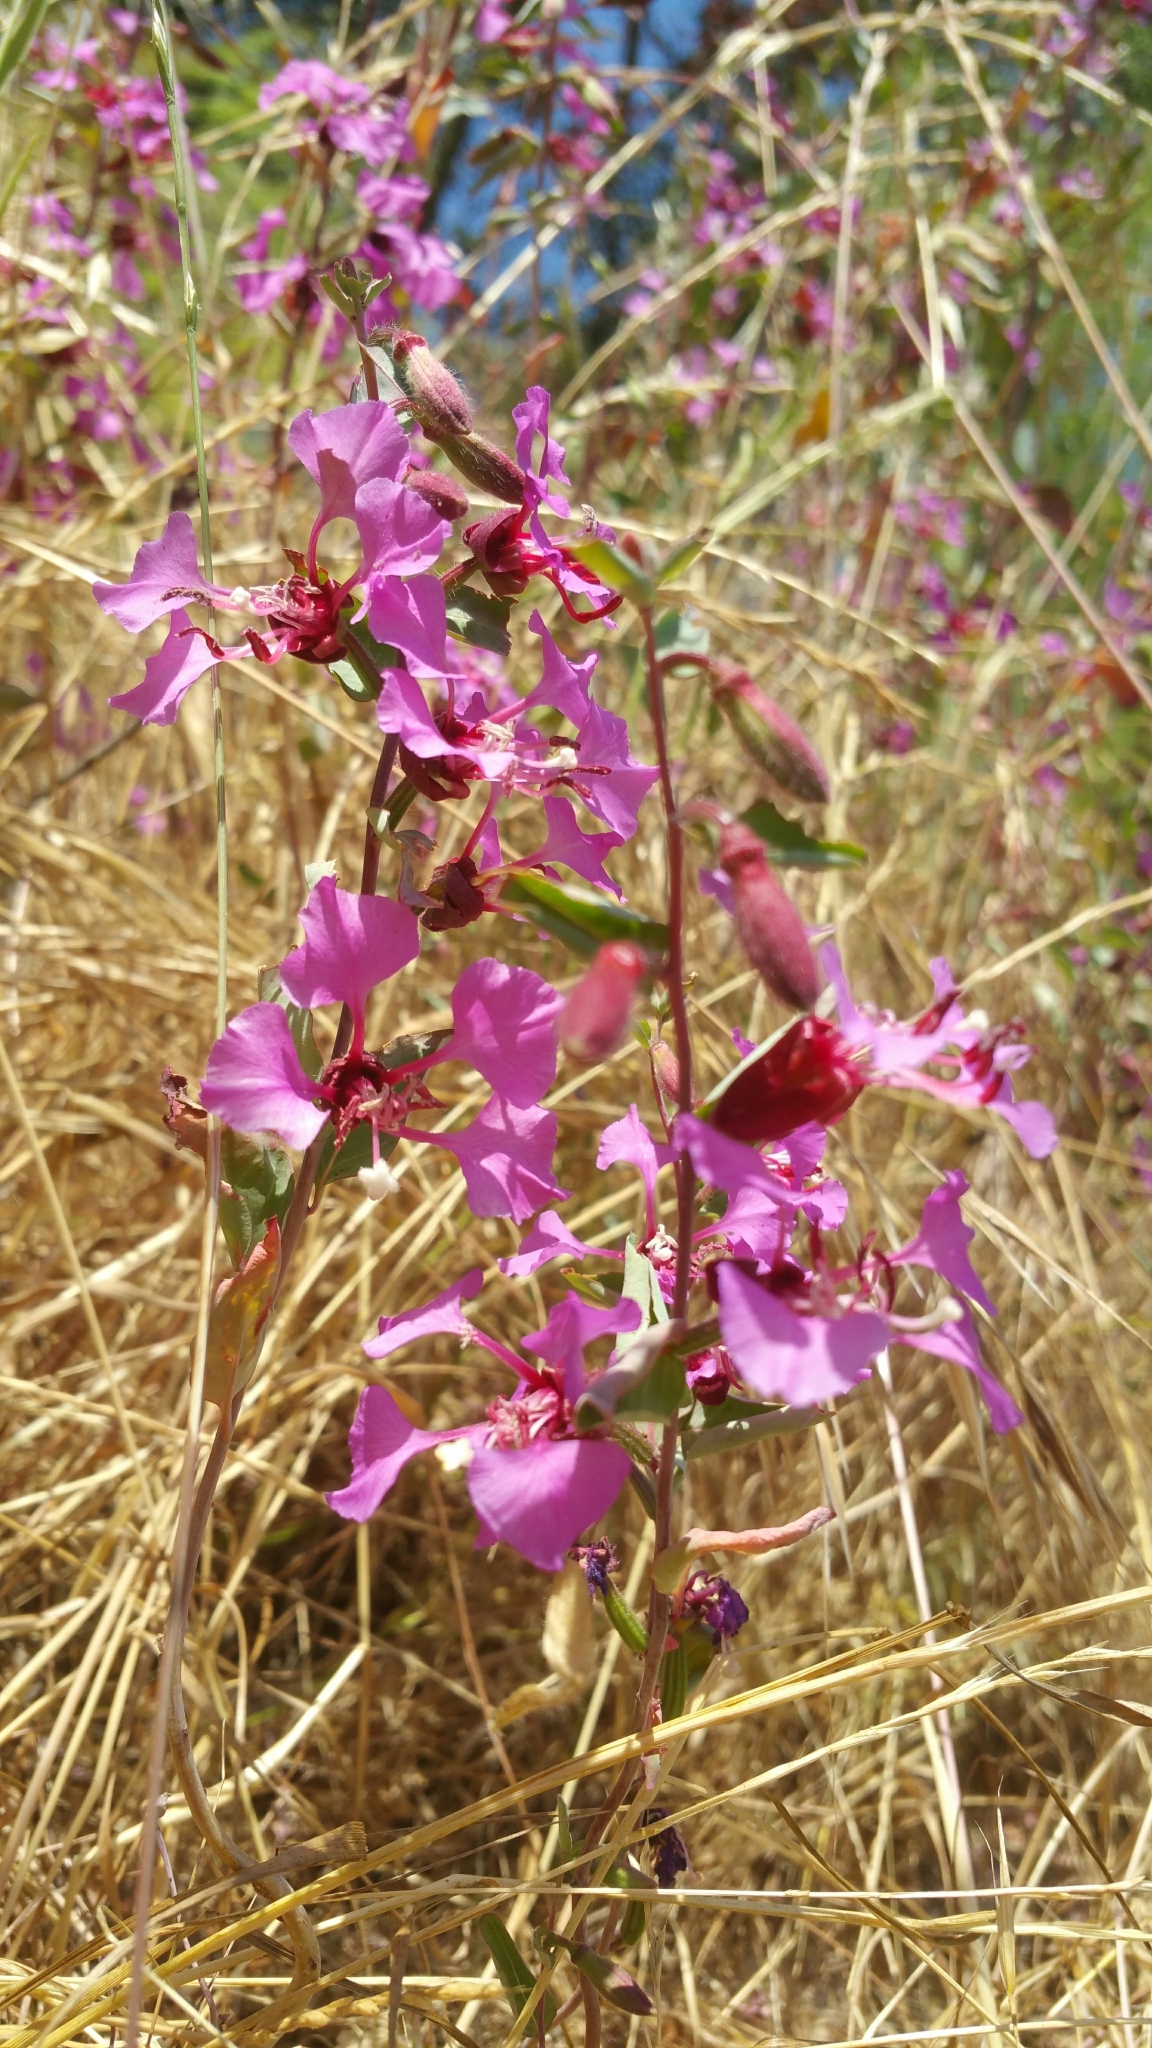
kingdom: Plantae
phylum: Tracheophyta
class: Magnoliopsida
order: Myrtales
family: Onagraceae
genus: Clarkia
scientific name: Clarkia unguiculata
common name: Clarkia
